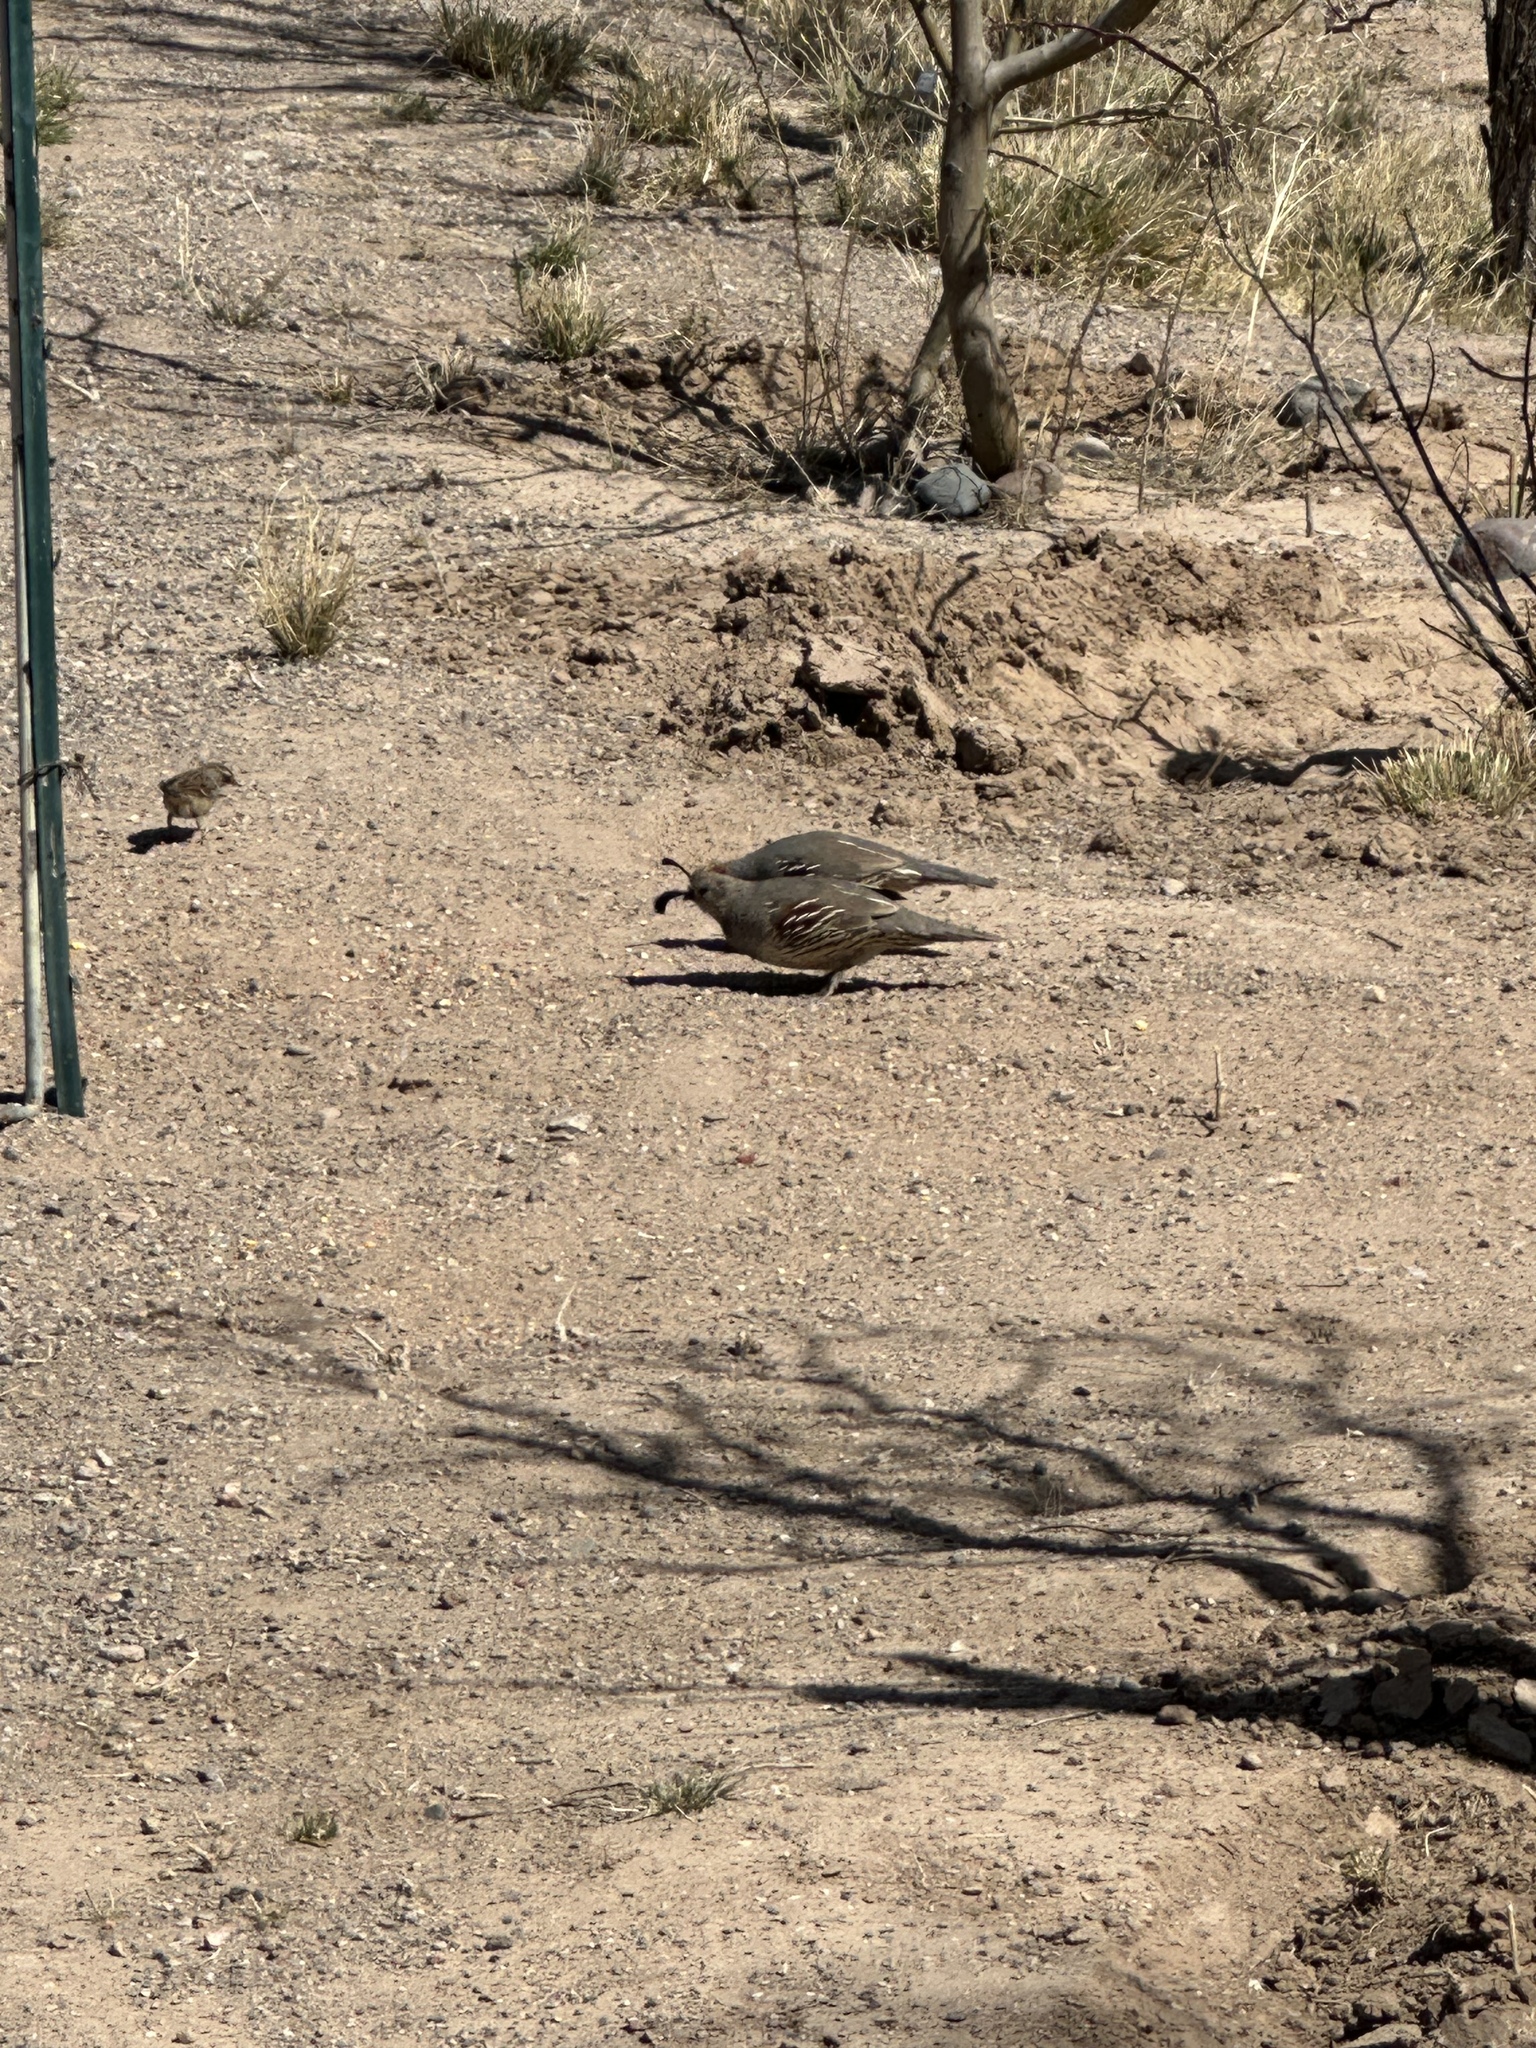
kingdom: Animalia
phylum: Chordata
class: Aves
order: Galliformes
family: Odontophoridae
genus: Callipepla
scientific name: Callipepla gambelii
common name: Gambel's quail
